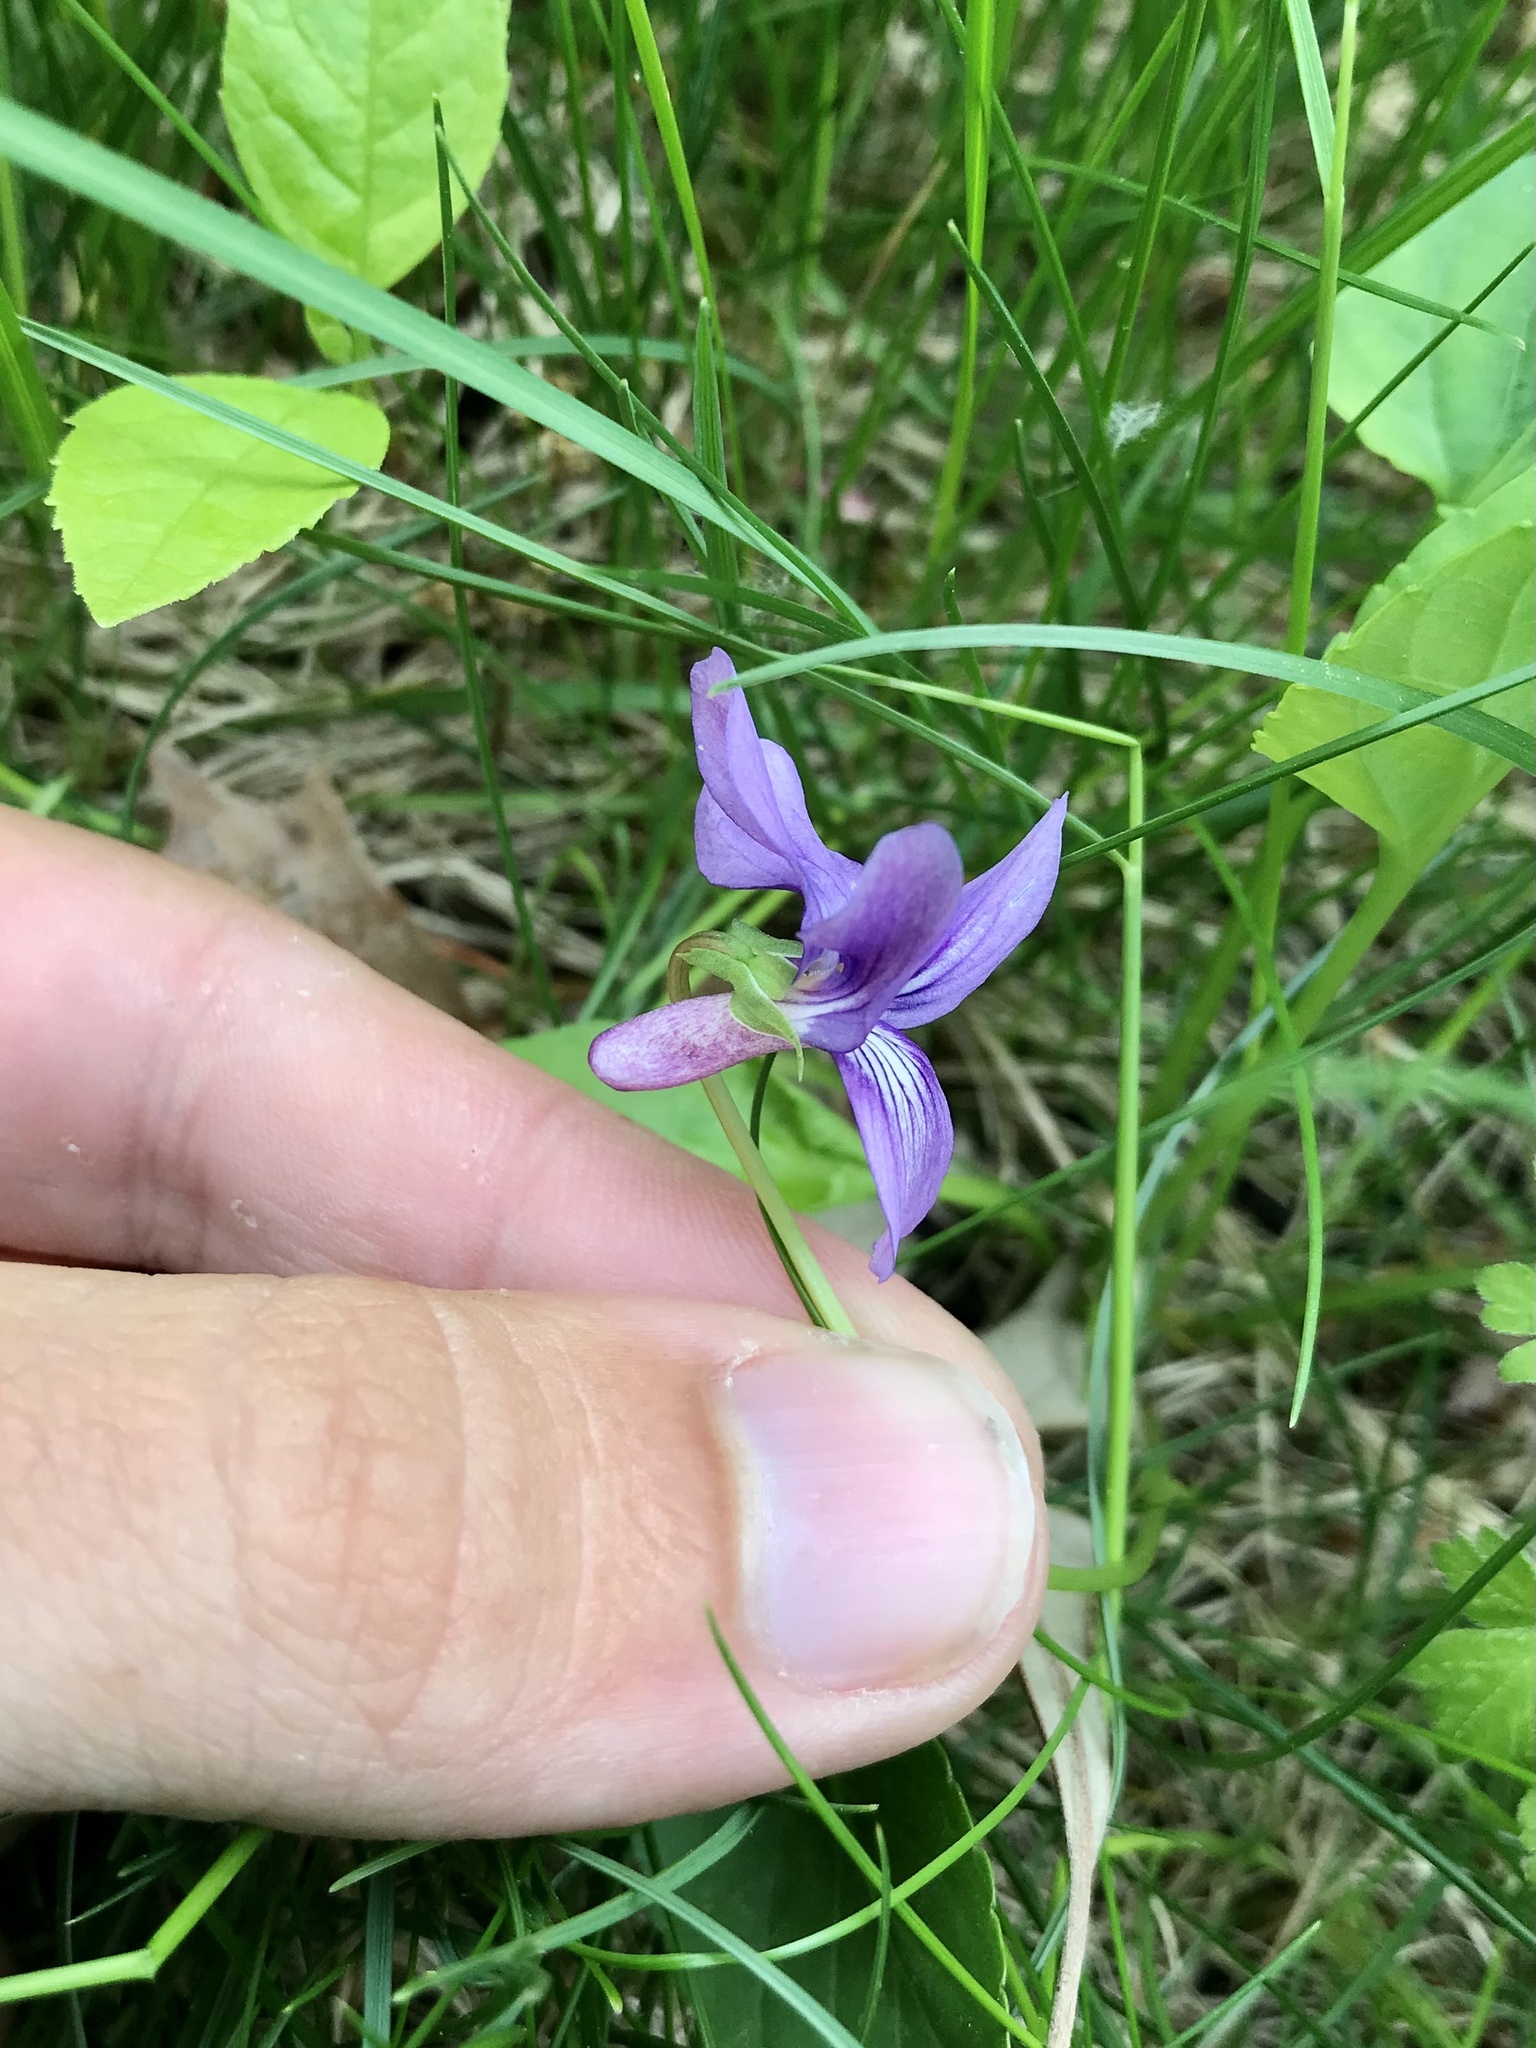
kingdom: Plantae
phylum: Tracheophyta
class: Magnoliopsida
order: Malpighiales
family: Violaceae
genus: Viola
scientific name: Viola philippica
